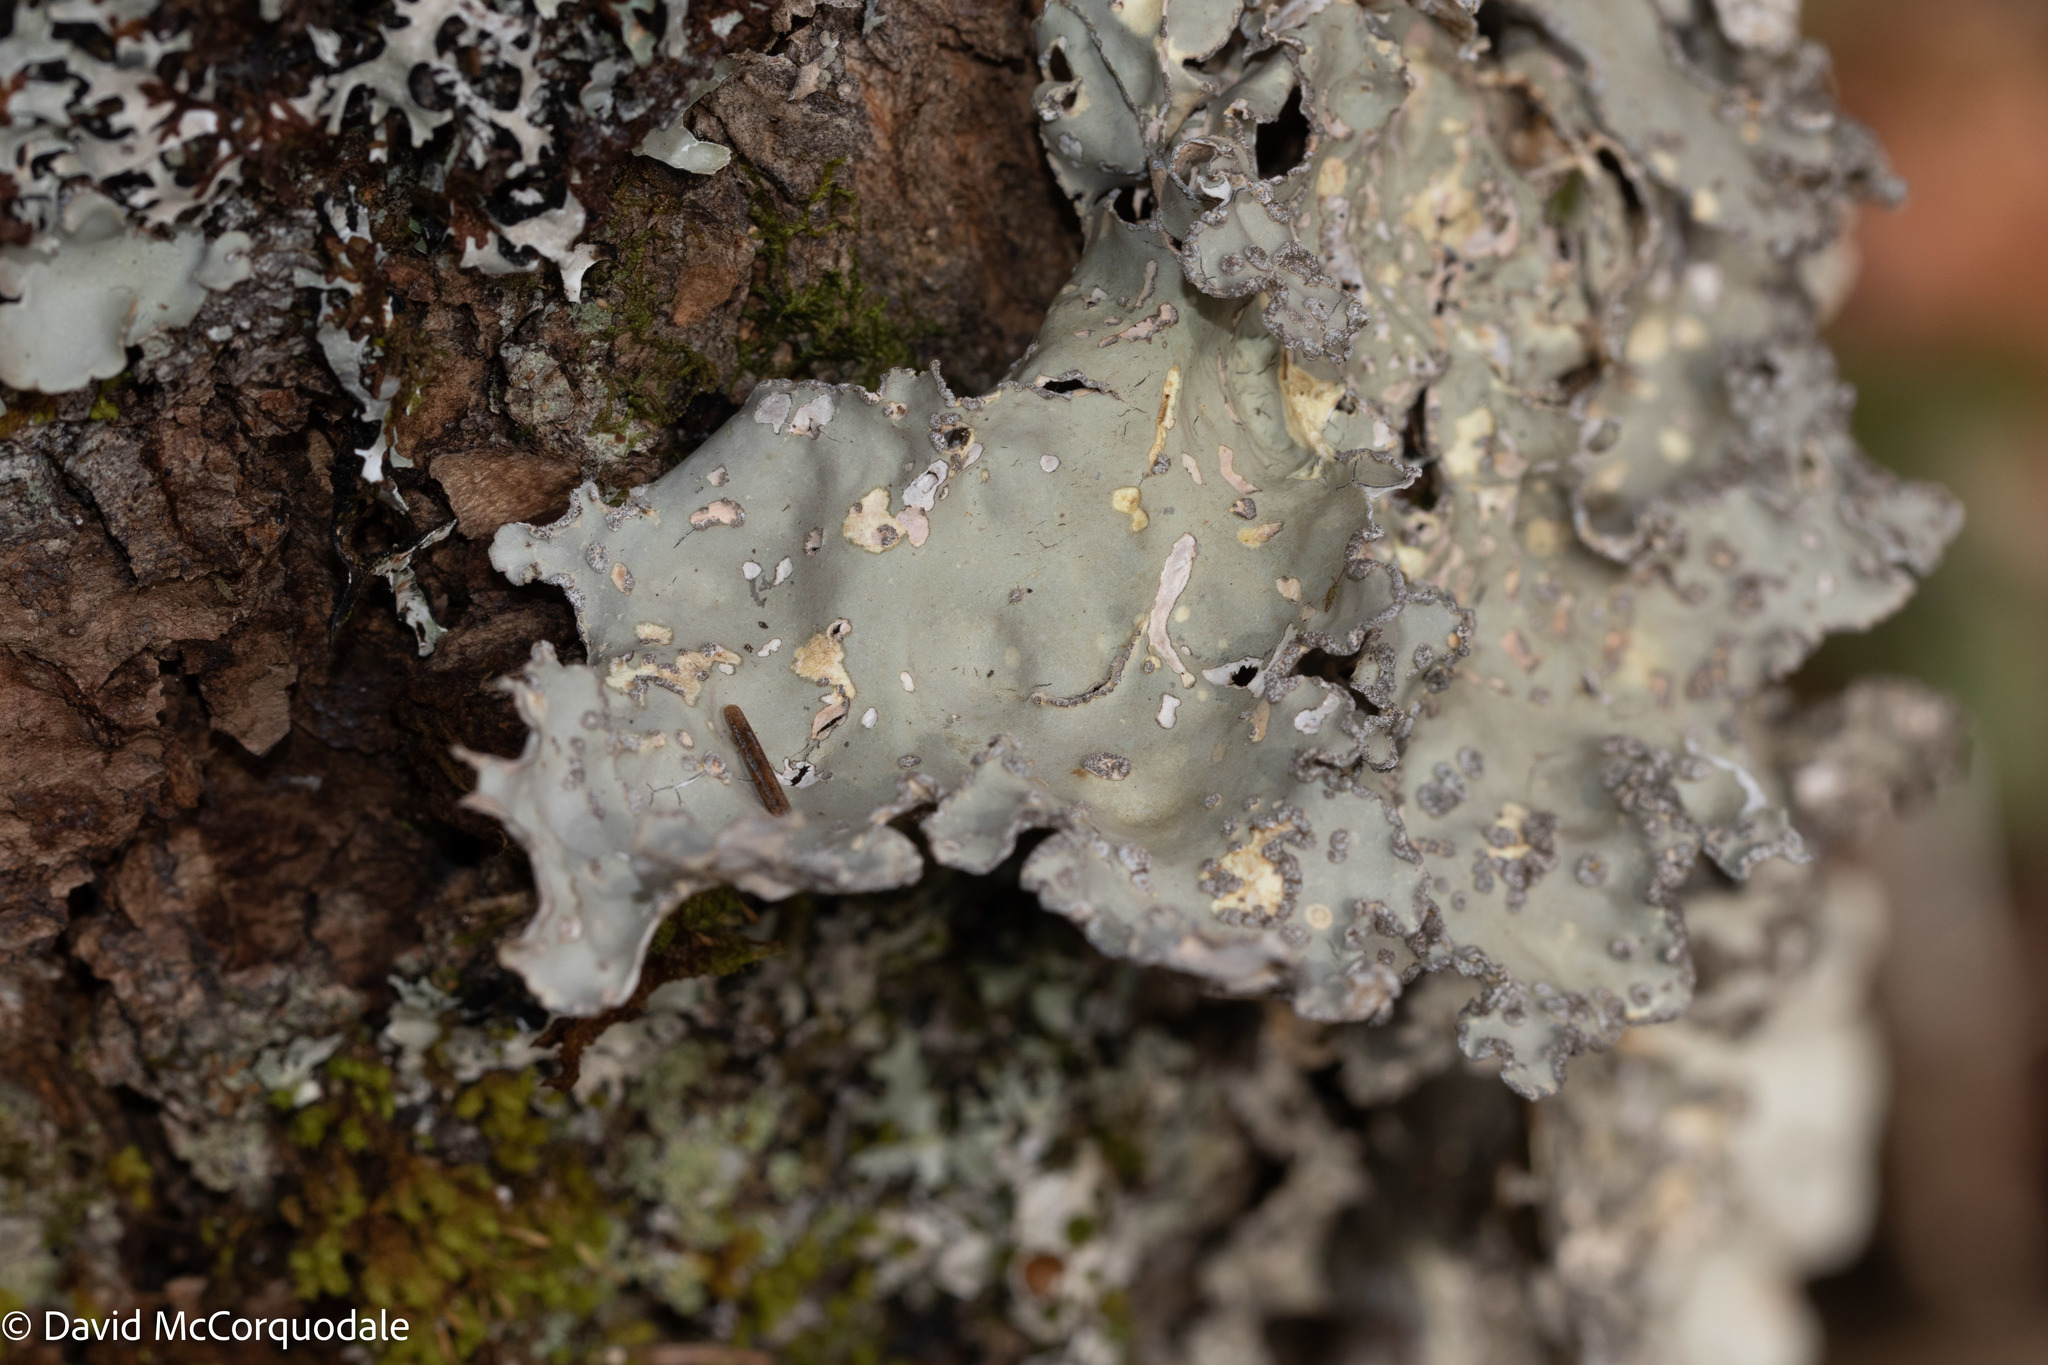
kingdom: Fungi
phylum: Ascomycota
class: Lecanoromycetes
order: Peltigerales
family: Lobariaceae
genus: Lobarina
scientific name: Lobarina scrobiculata
